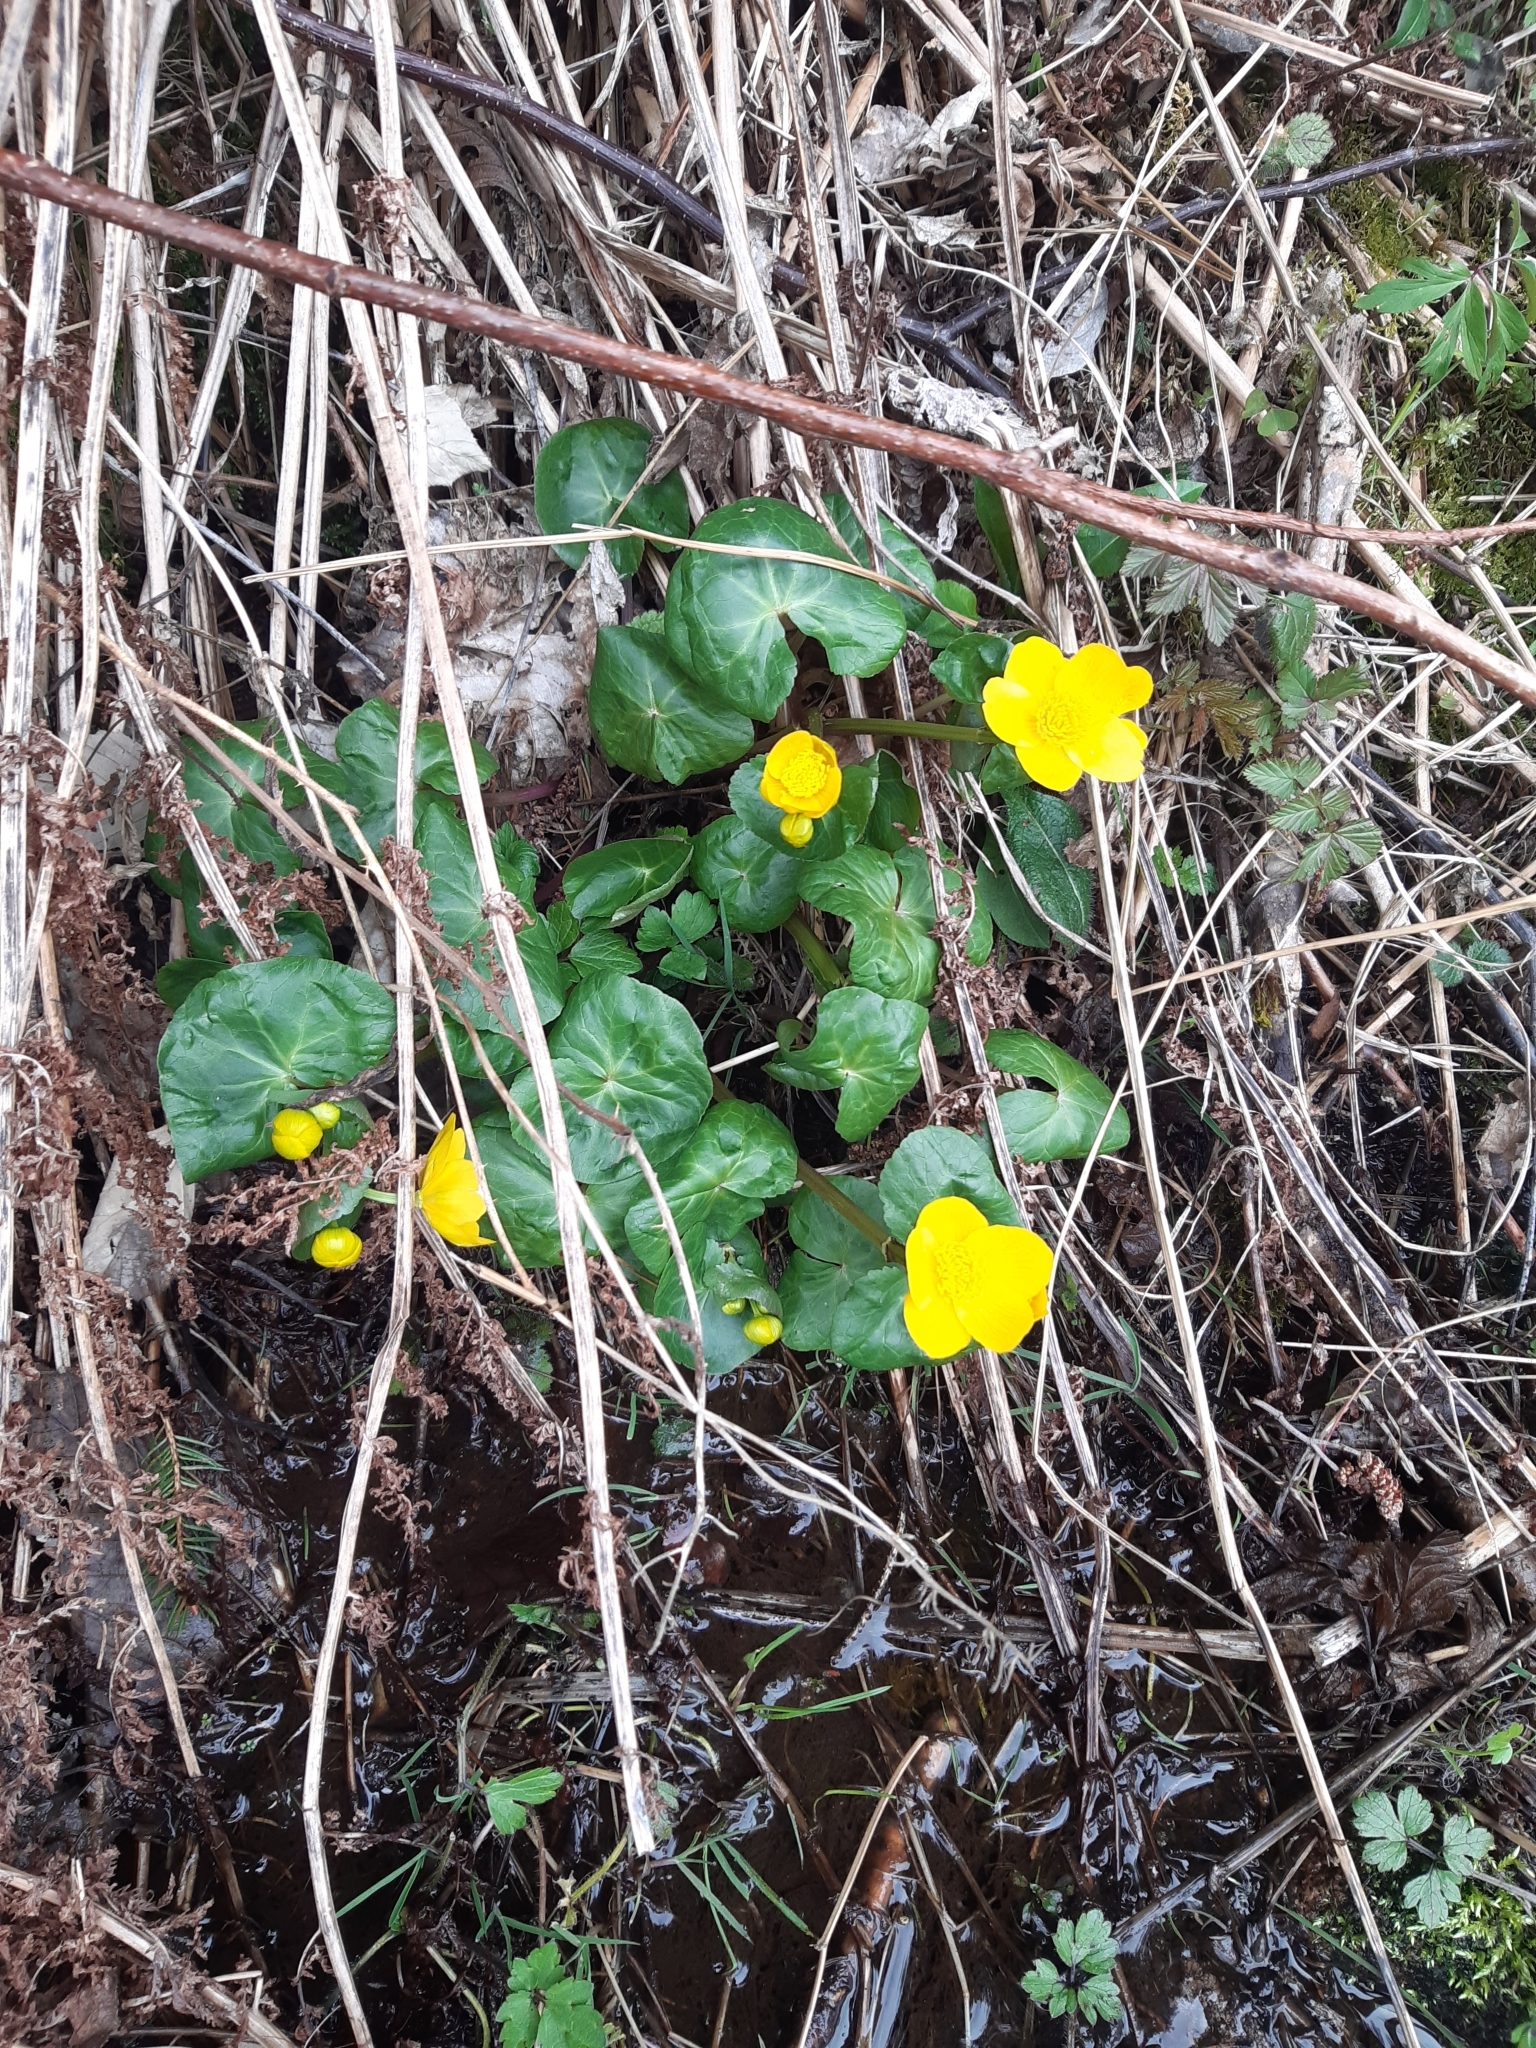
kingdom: Plantae
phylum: Tracheophyta
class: Magnoliopsida
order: Ranunculales
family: Ranunculaceae
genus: Caltha
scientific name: Caltha palustris
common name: Marsh marigold
